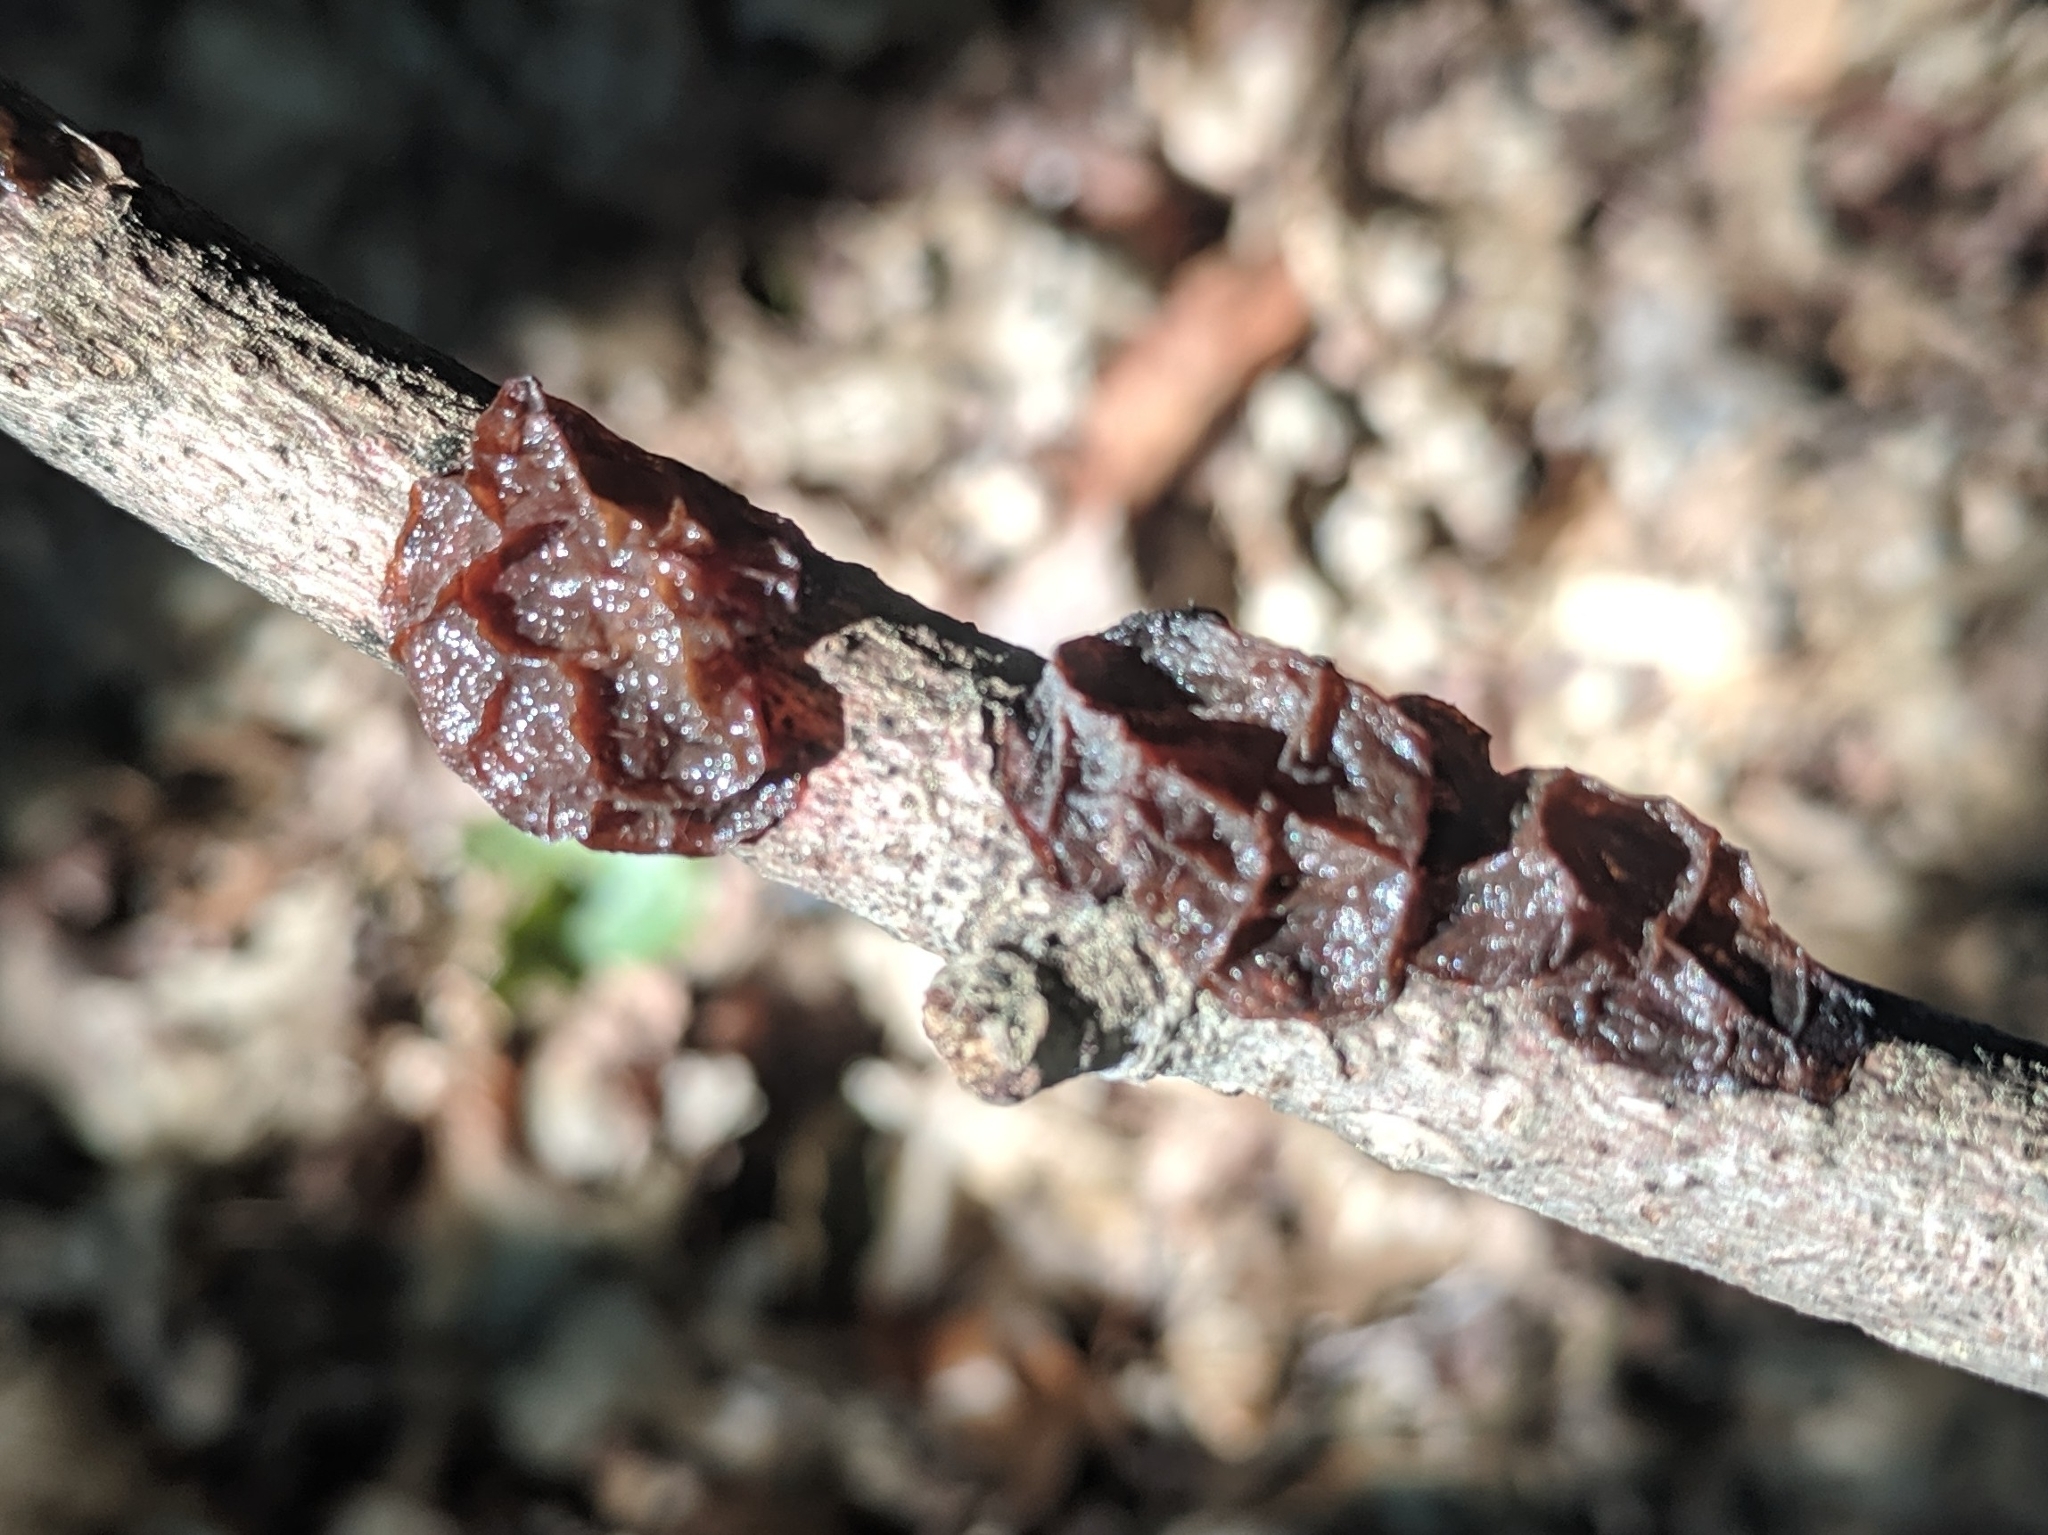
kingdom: Fungi
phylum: Basidiomycota
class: Agaricomycetes
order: Auriculariales
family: Auriculariaceae
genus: Exidia
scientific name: Exidia
